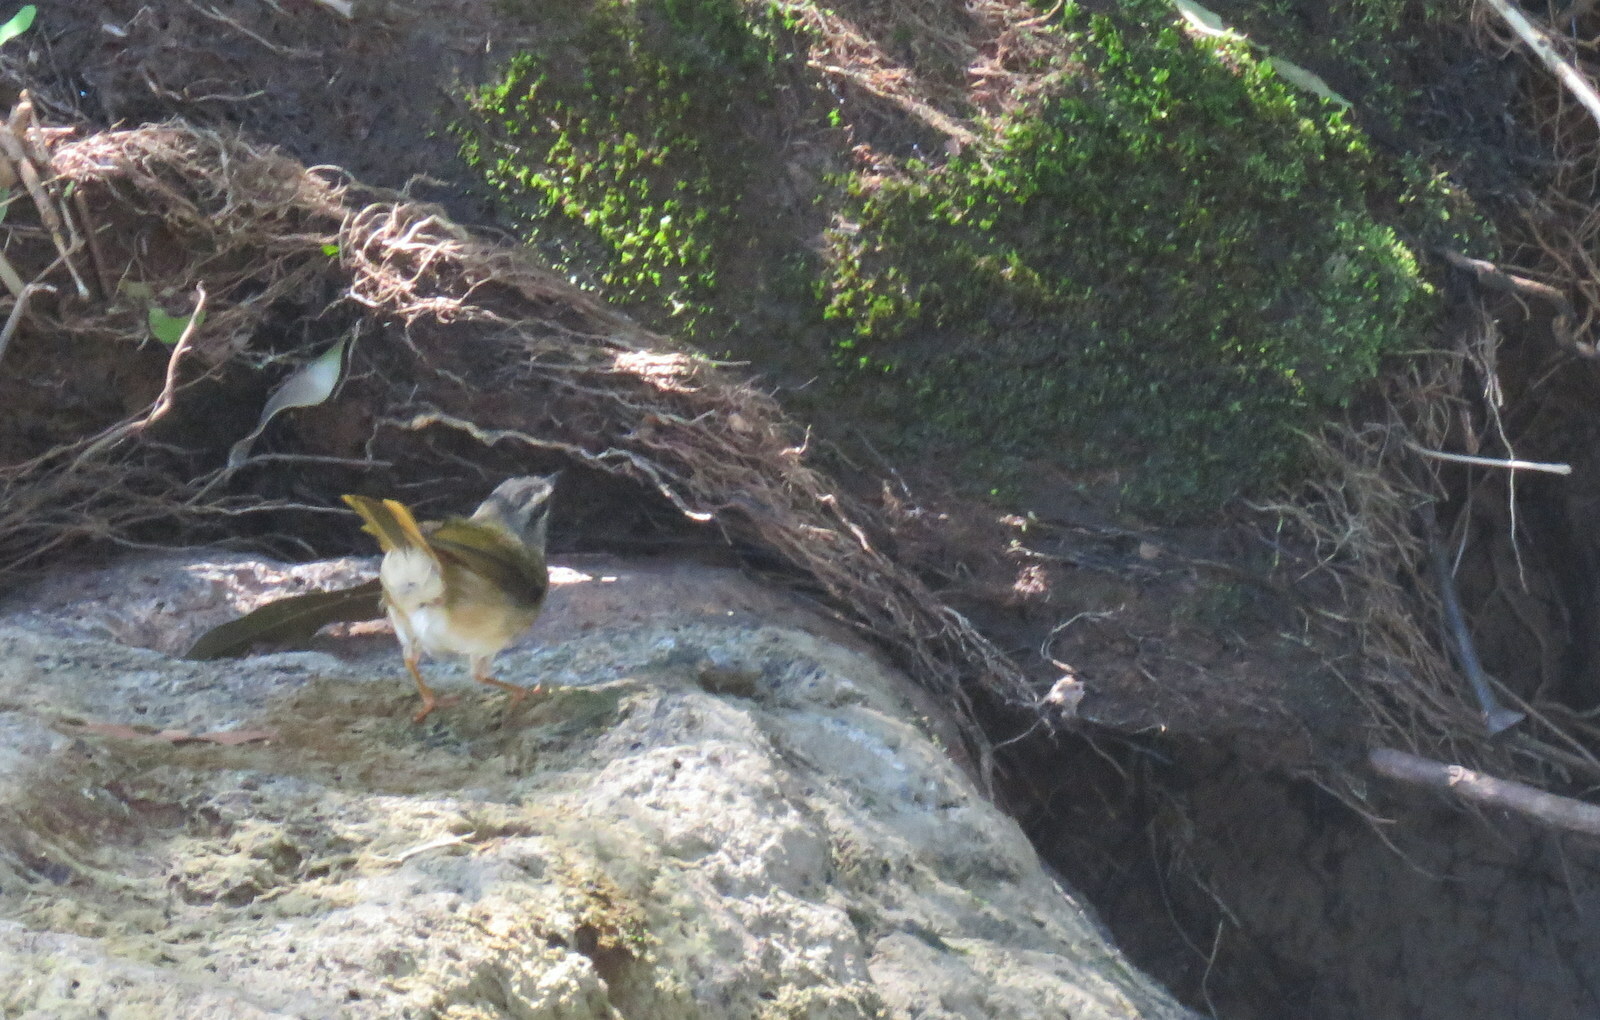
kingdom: Animalia
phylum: Chordata
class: Aves
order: Passeriformes
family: Parulidae
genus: Myiothlypis
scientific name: Myiothlypis rivularis
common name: Riverbank warbler
